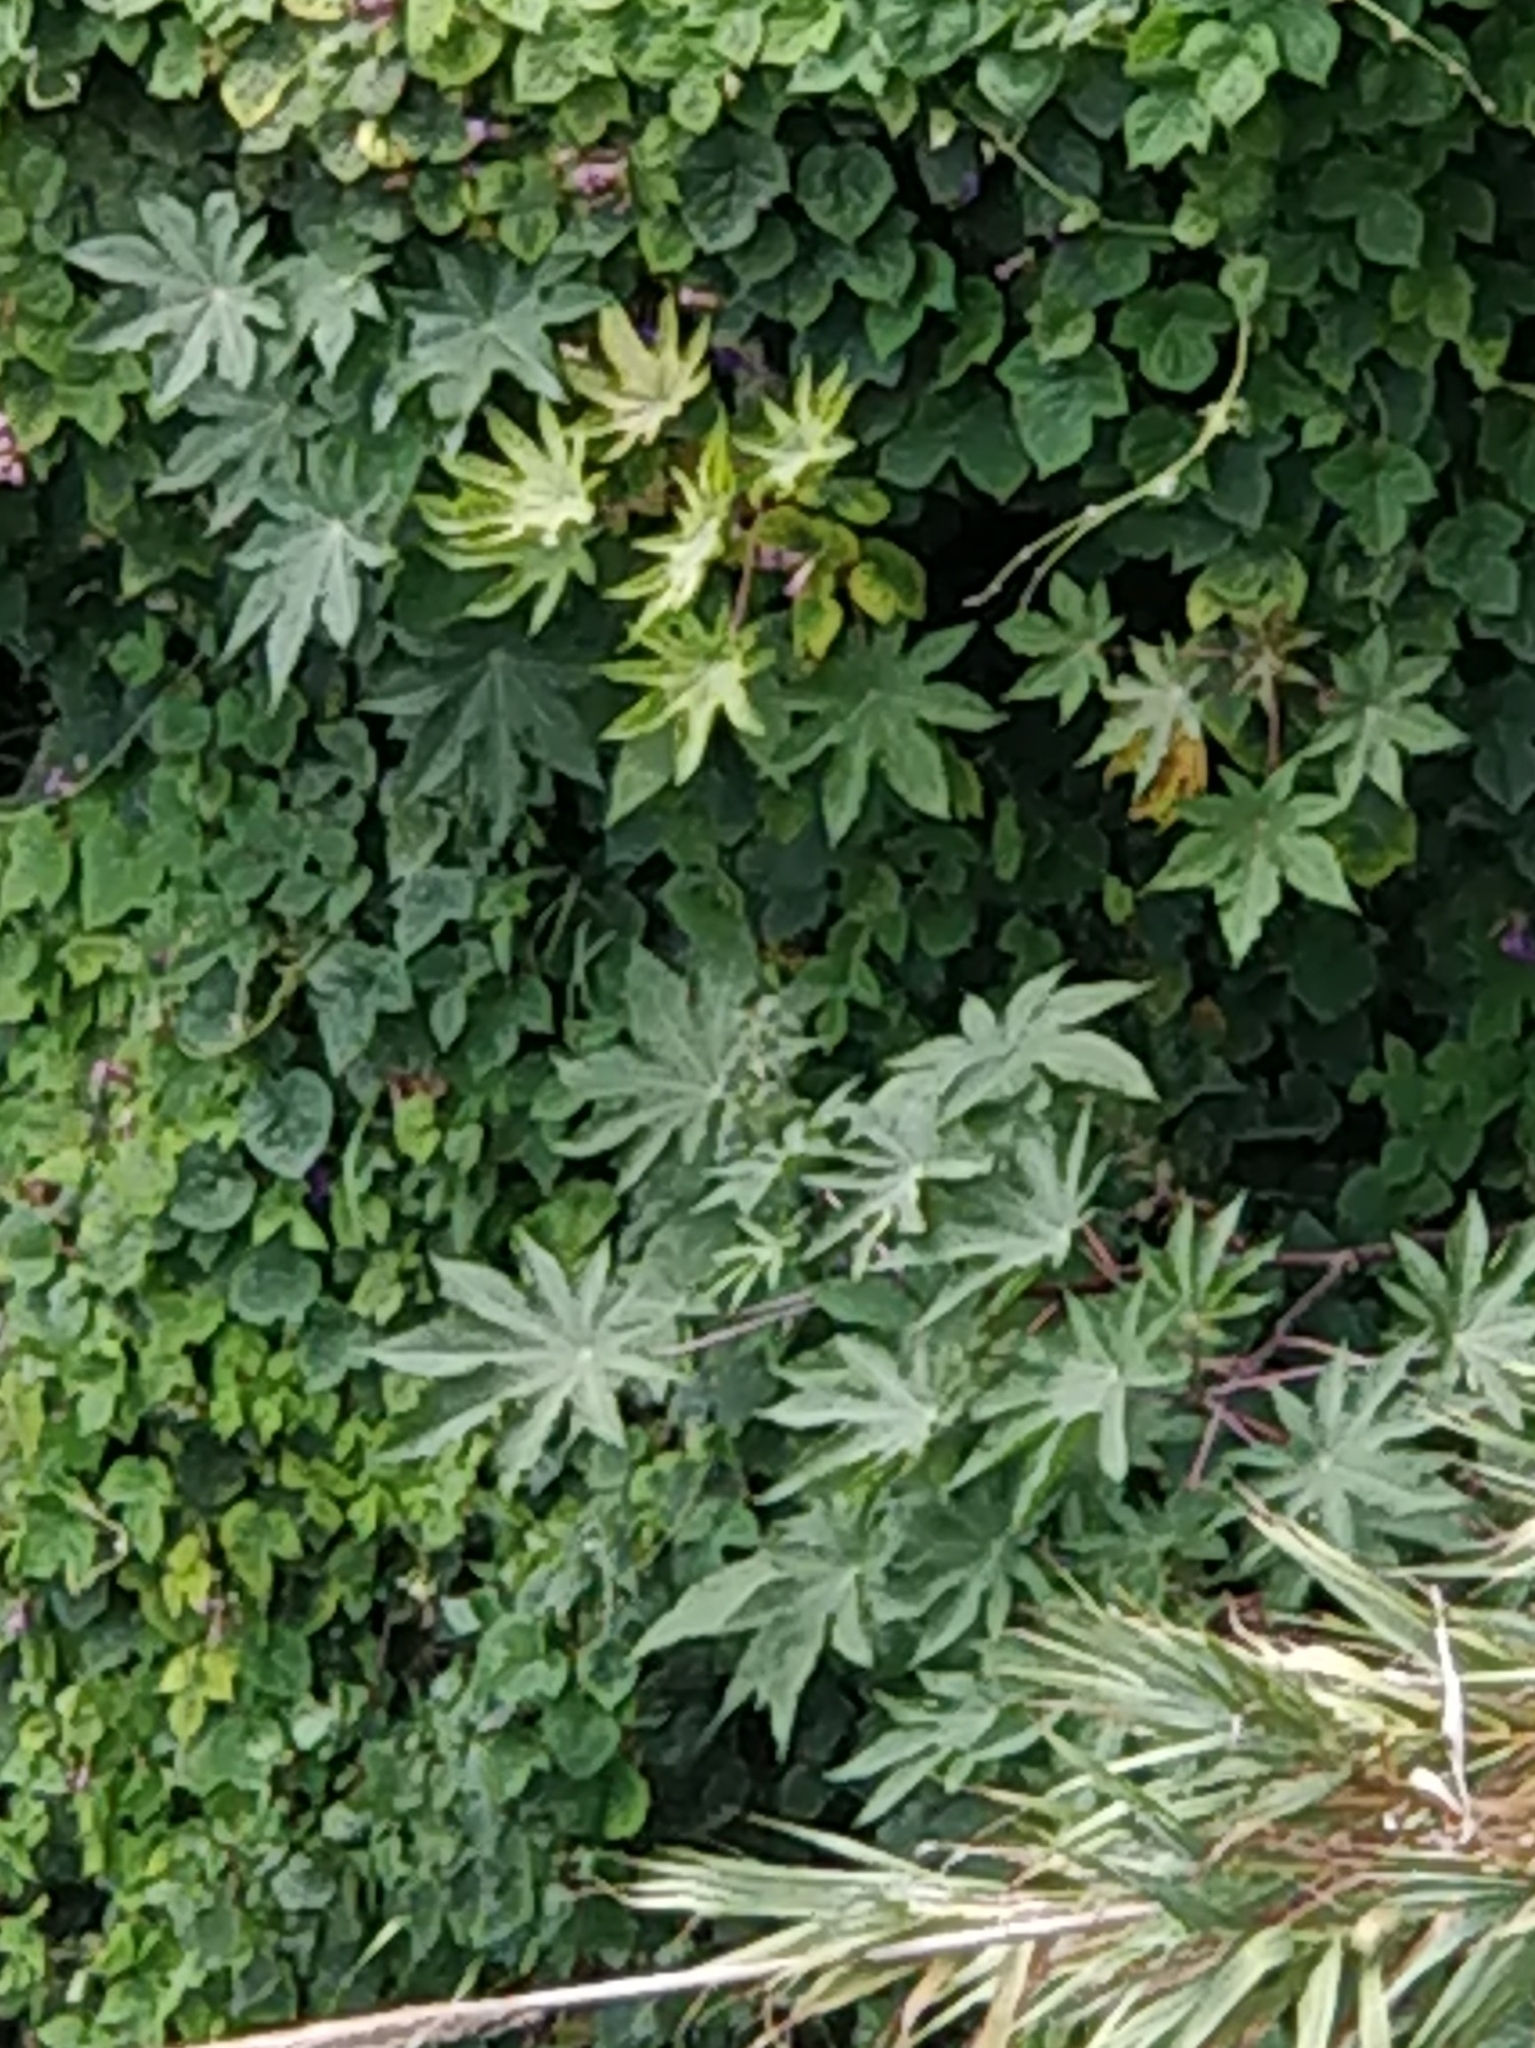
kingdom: Plantae
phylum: Tracheophyta
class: Magnoliopsida
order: Malpighiales
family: Euphorbiaceae
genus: Ricinus
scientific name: Ricinus communis
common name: Castor-oil-plant
